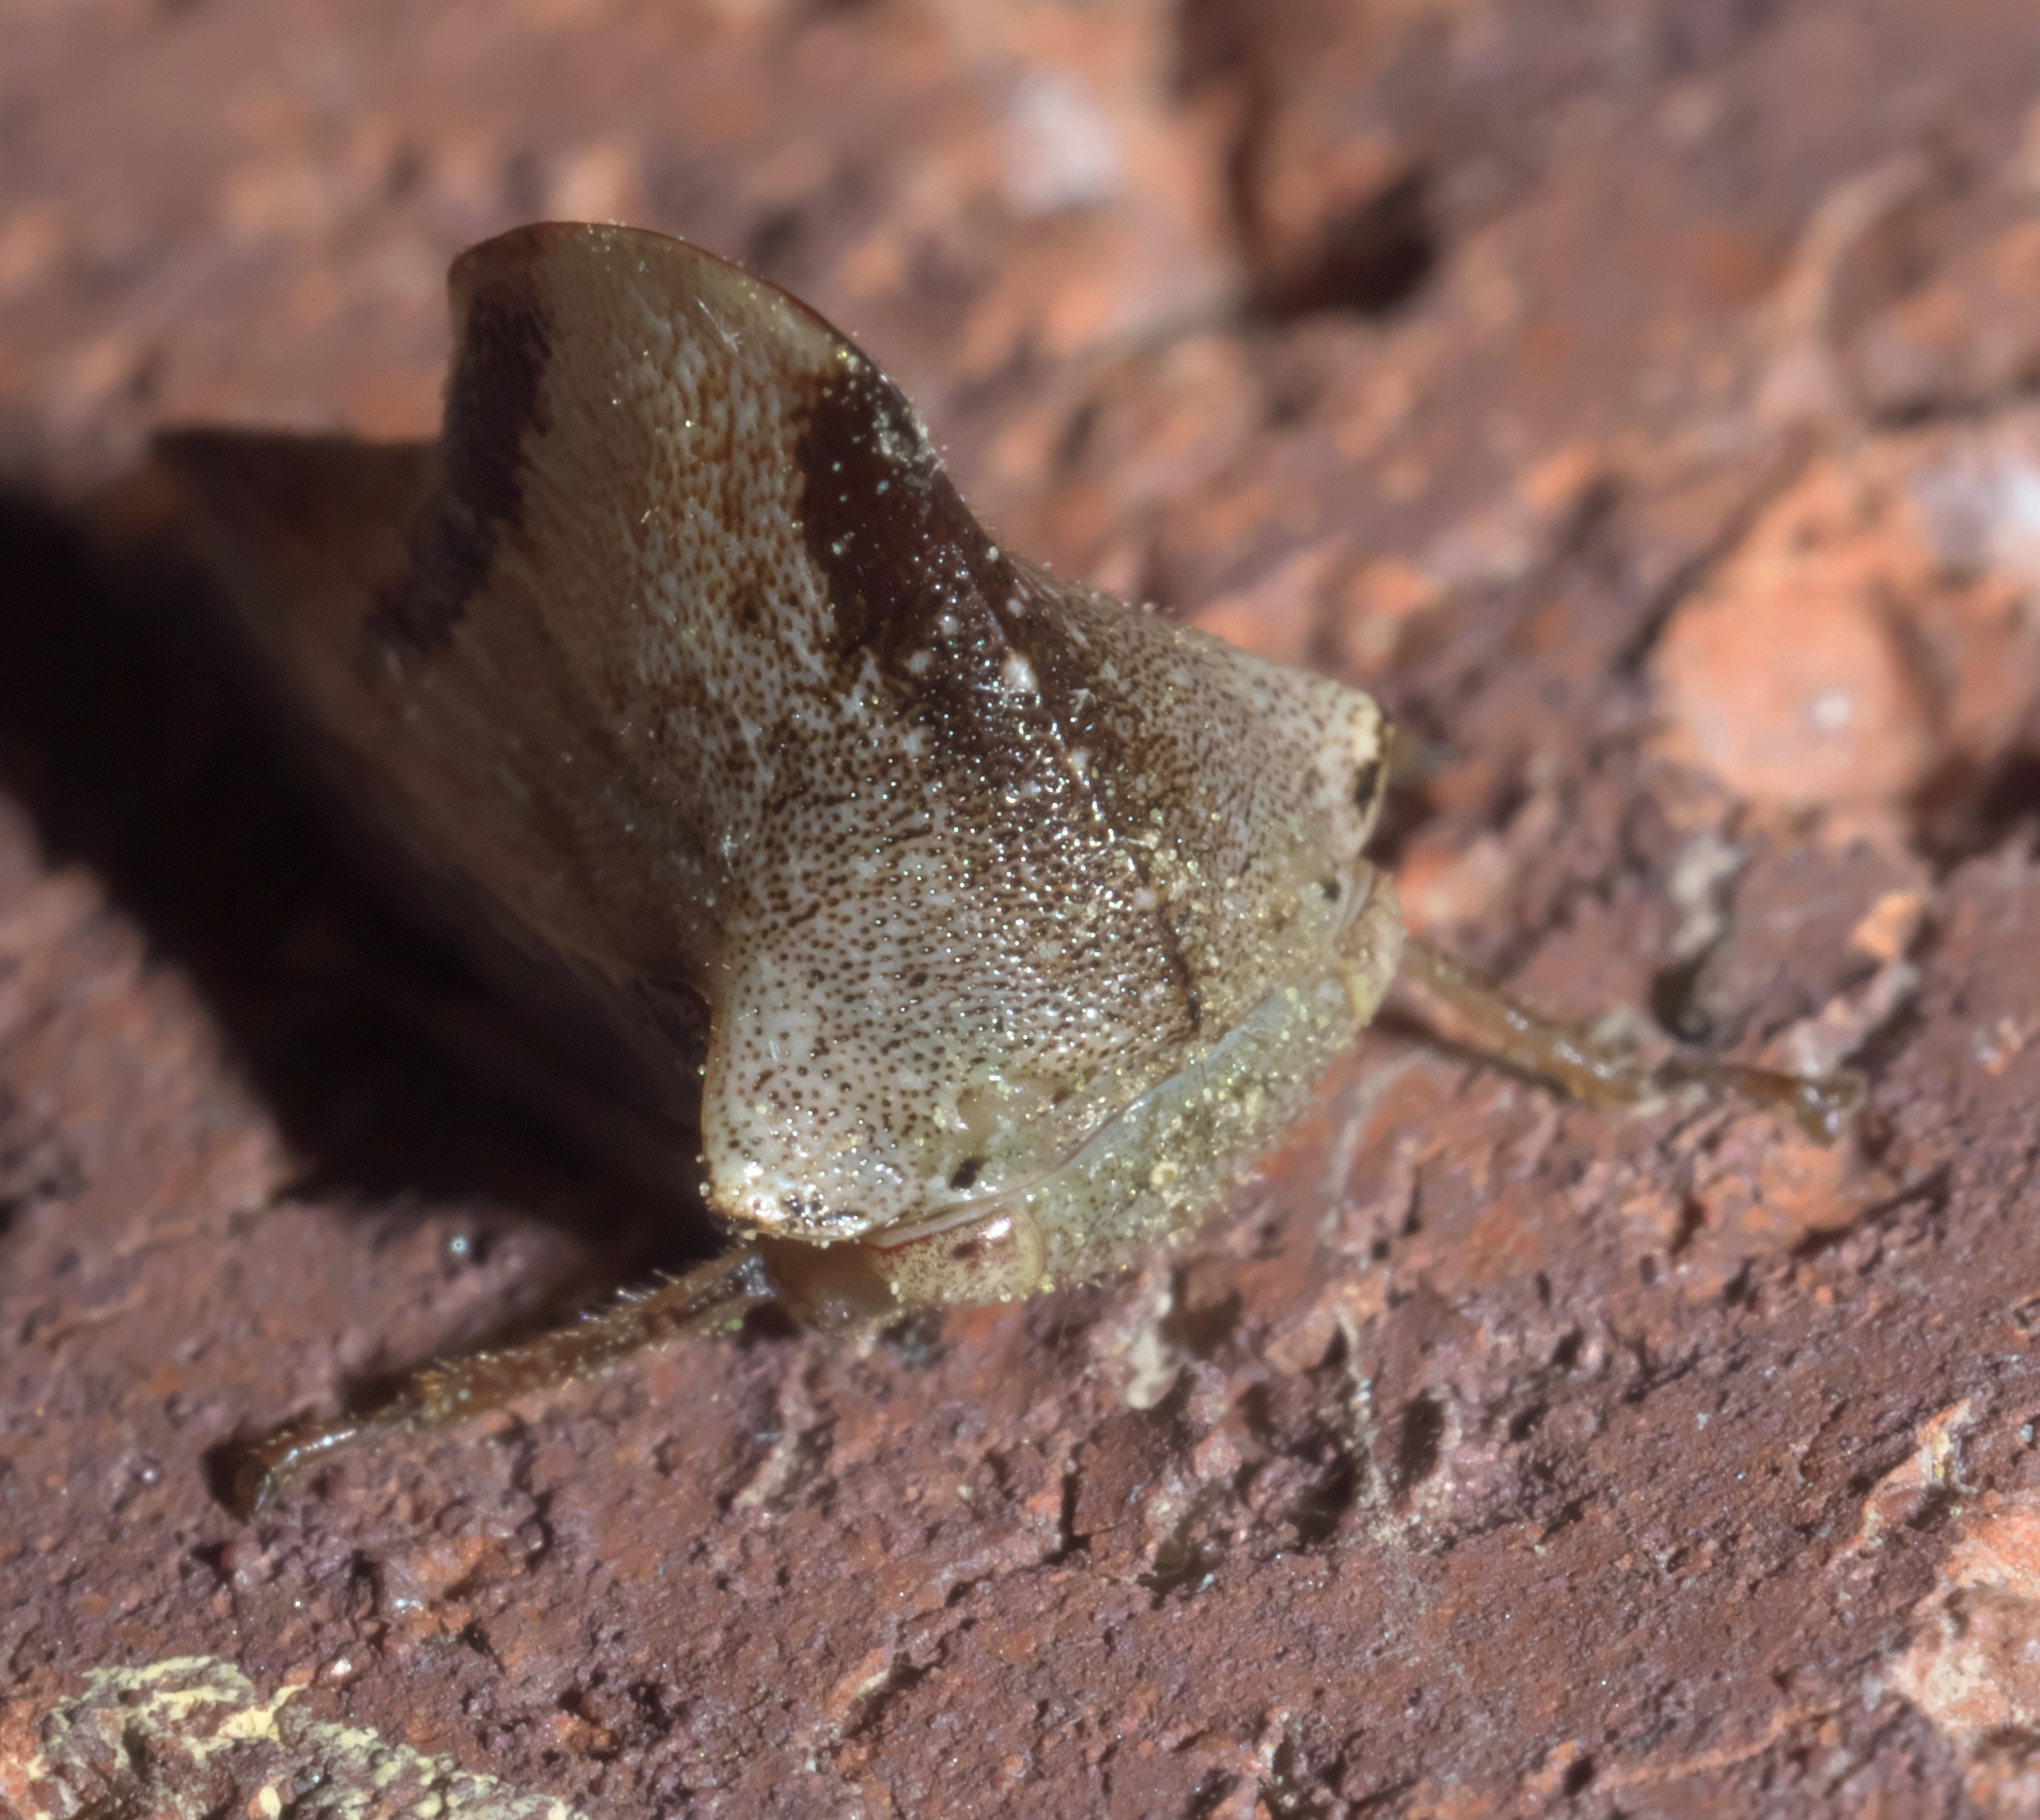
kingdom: Animalia
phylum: Arthropoda
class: Insecta
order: Hemiptera
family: Membracidae
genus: Helonica
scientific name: Helonica excelsa
